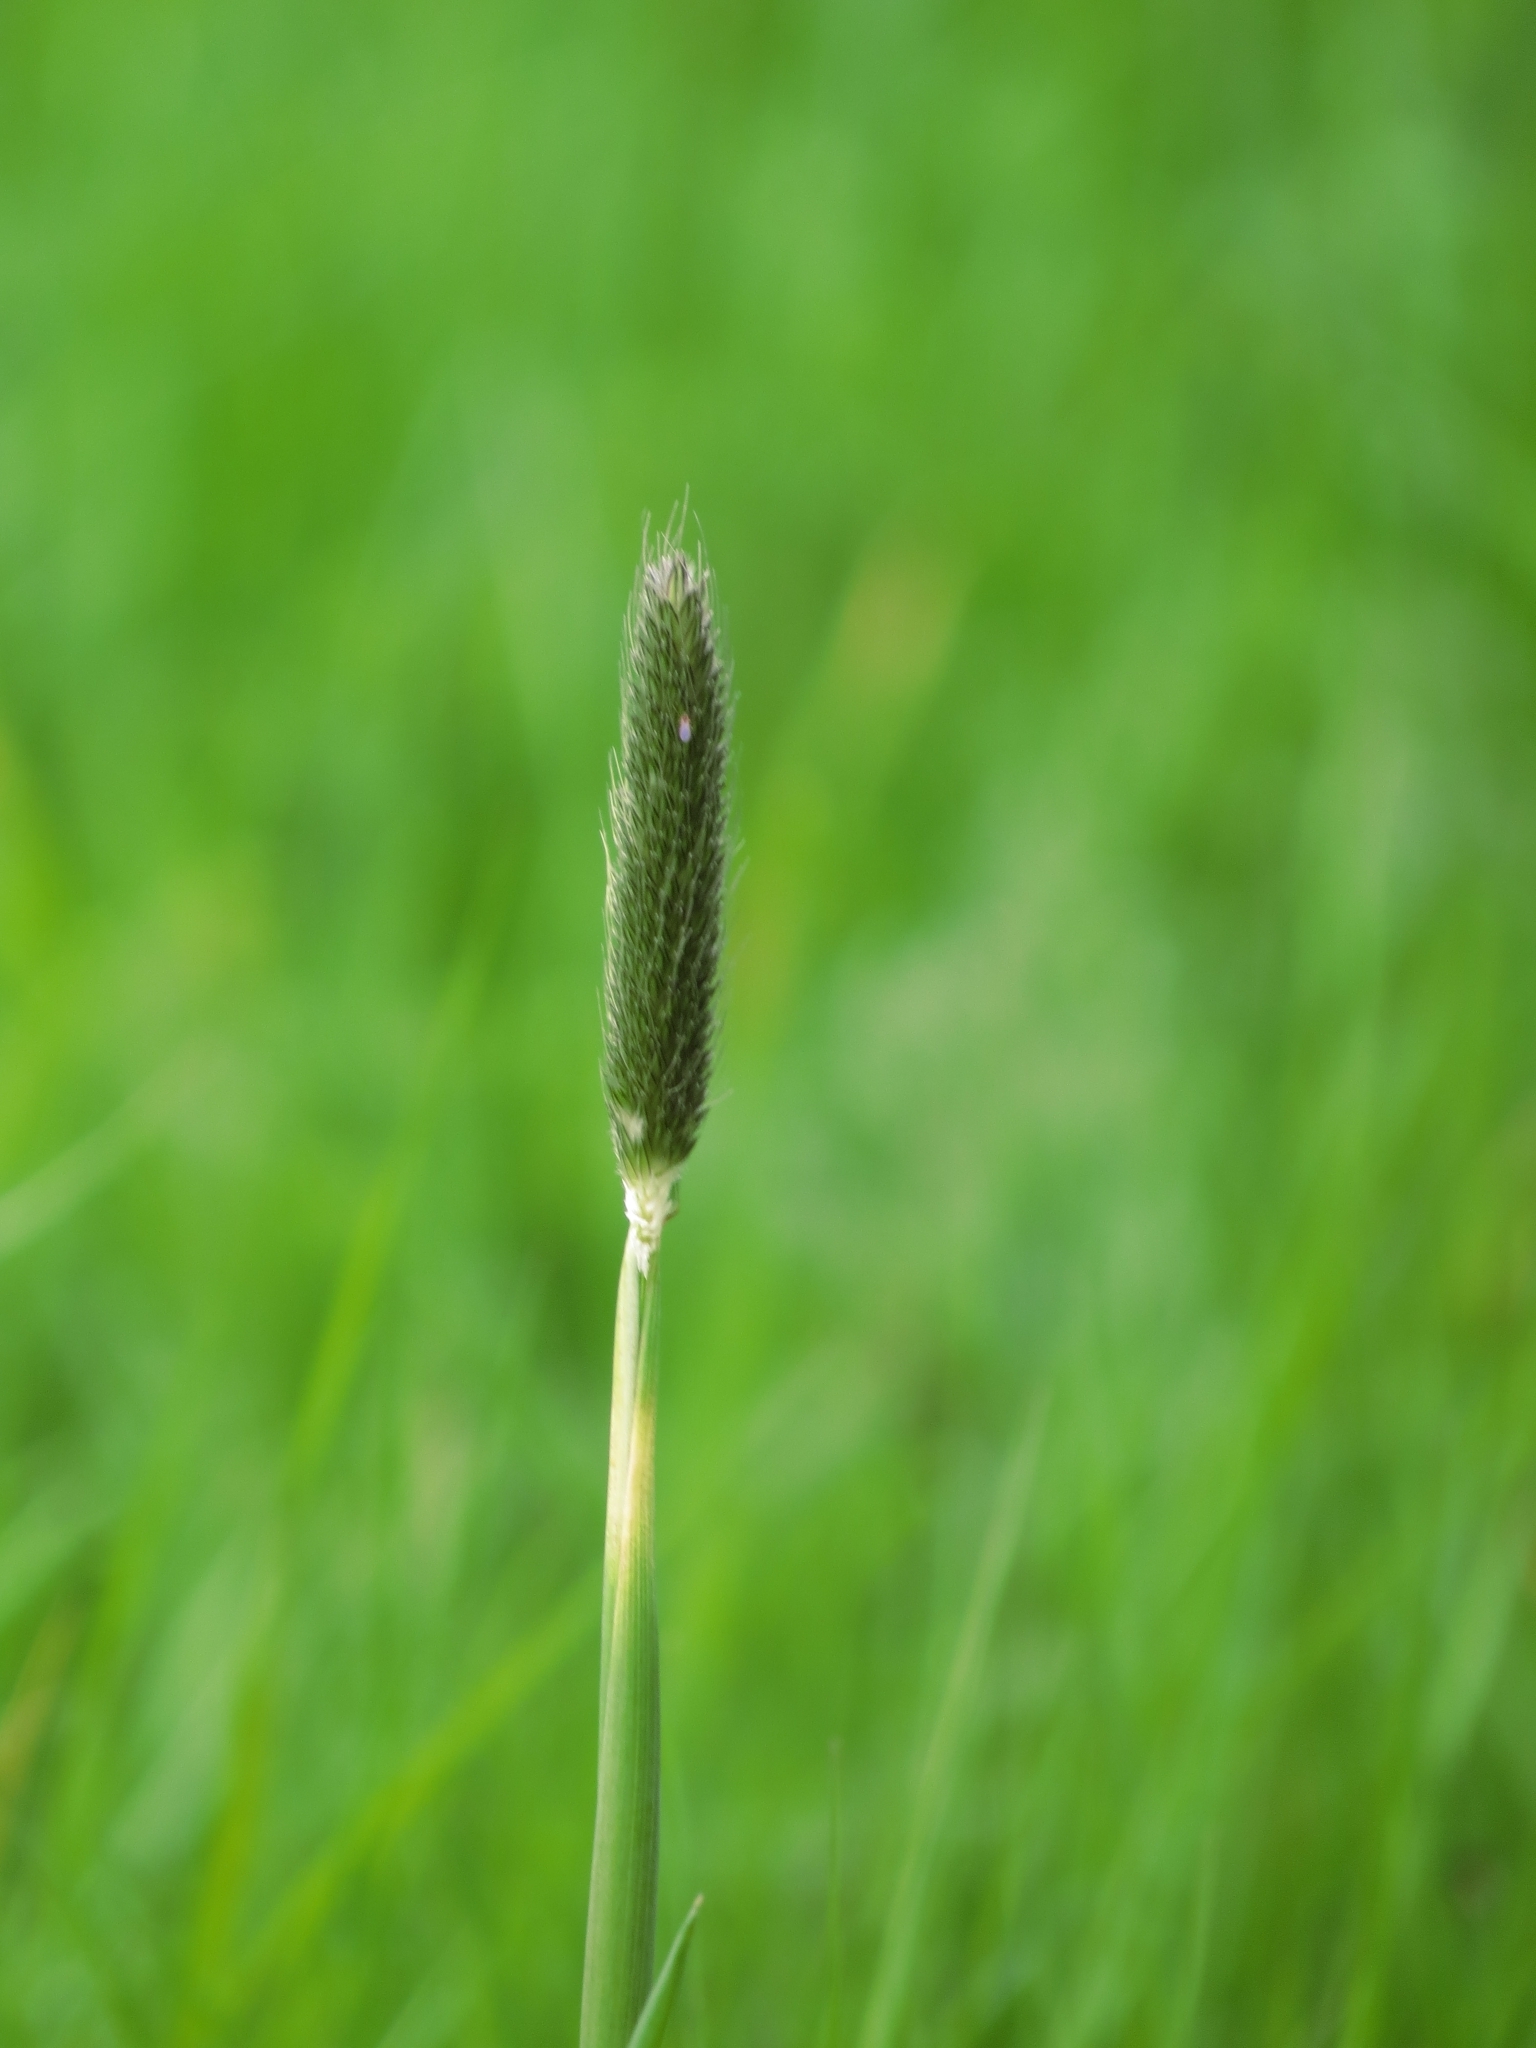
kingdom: Plantae
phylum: Tracheophyta
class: Liliopsida
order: Poales
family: Poaceae
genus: Alopecurus
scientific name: Alopecurus pratensis
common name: Meadow foxtail
